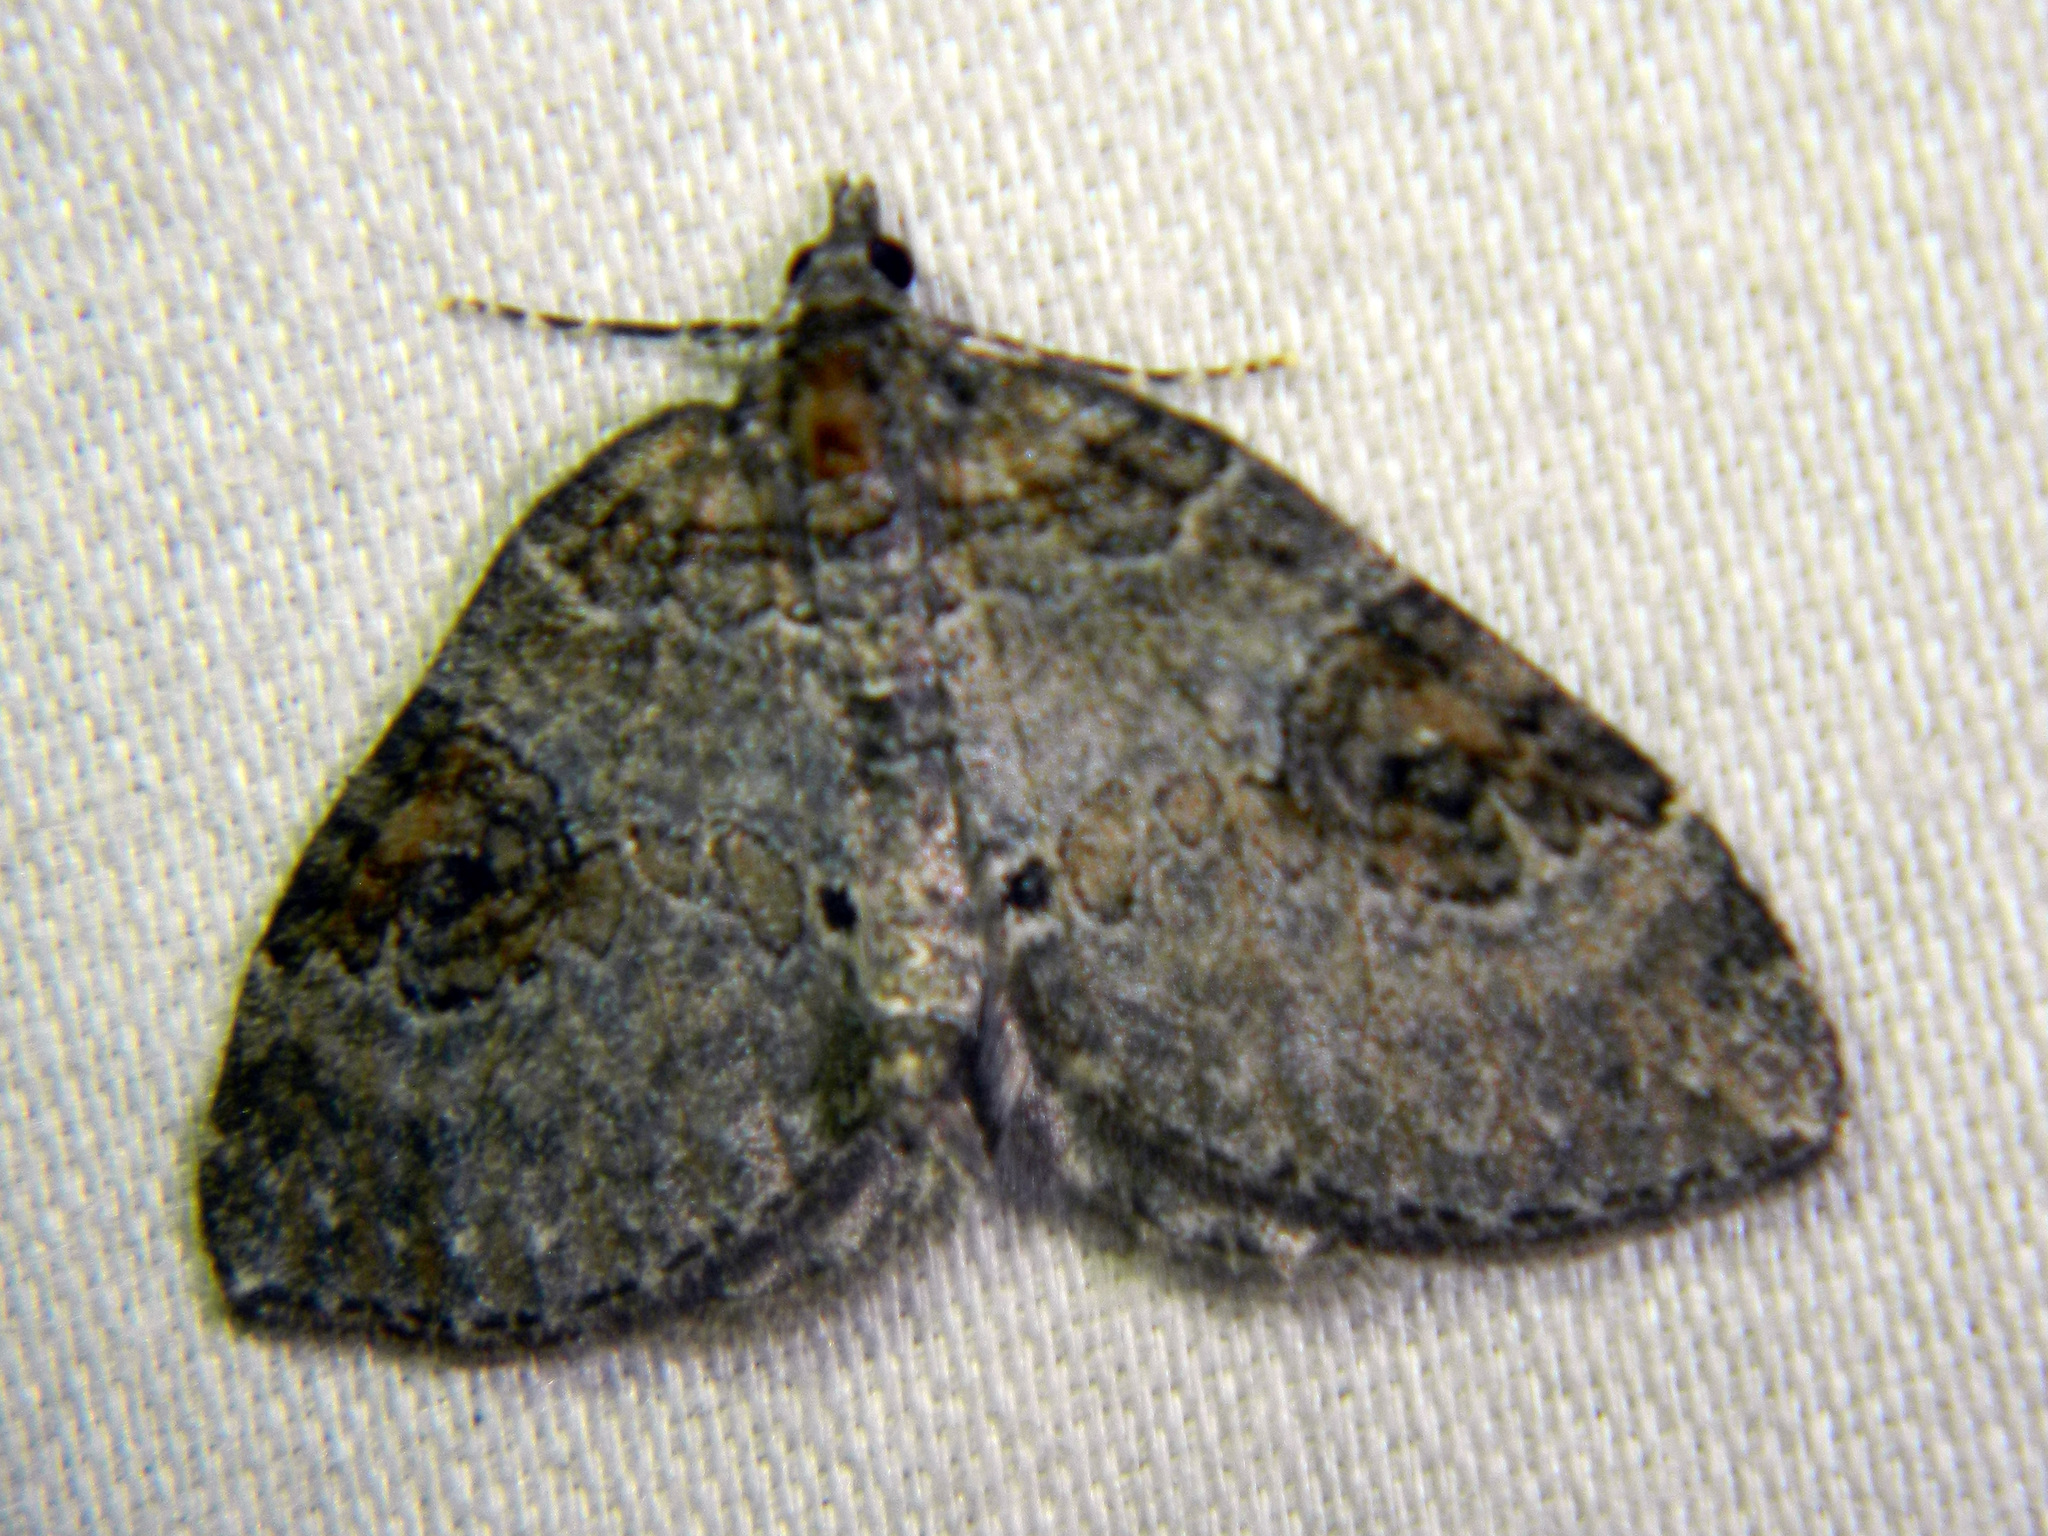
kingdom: Animalia
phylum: Arthropoda
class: Insecta
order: Lepidoptera
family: Geometridae
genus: Plemyria
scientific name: Plemyria georgii
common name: George's carpet moth
